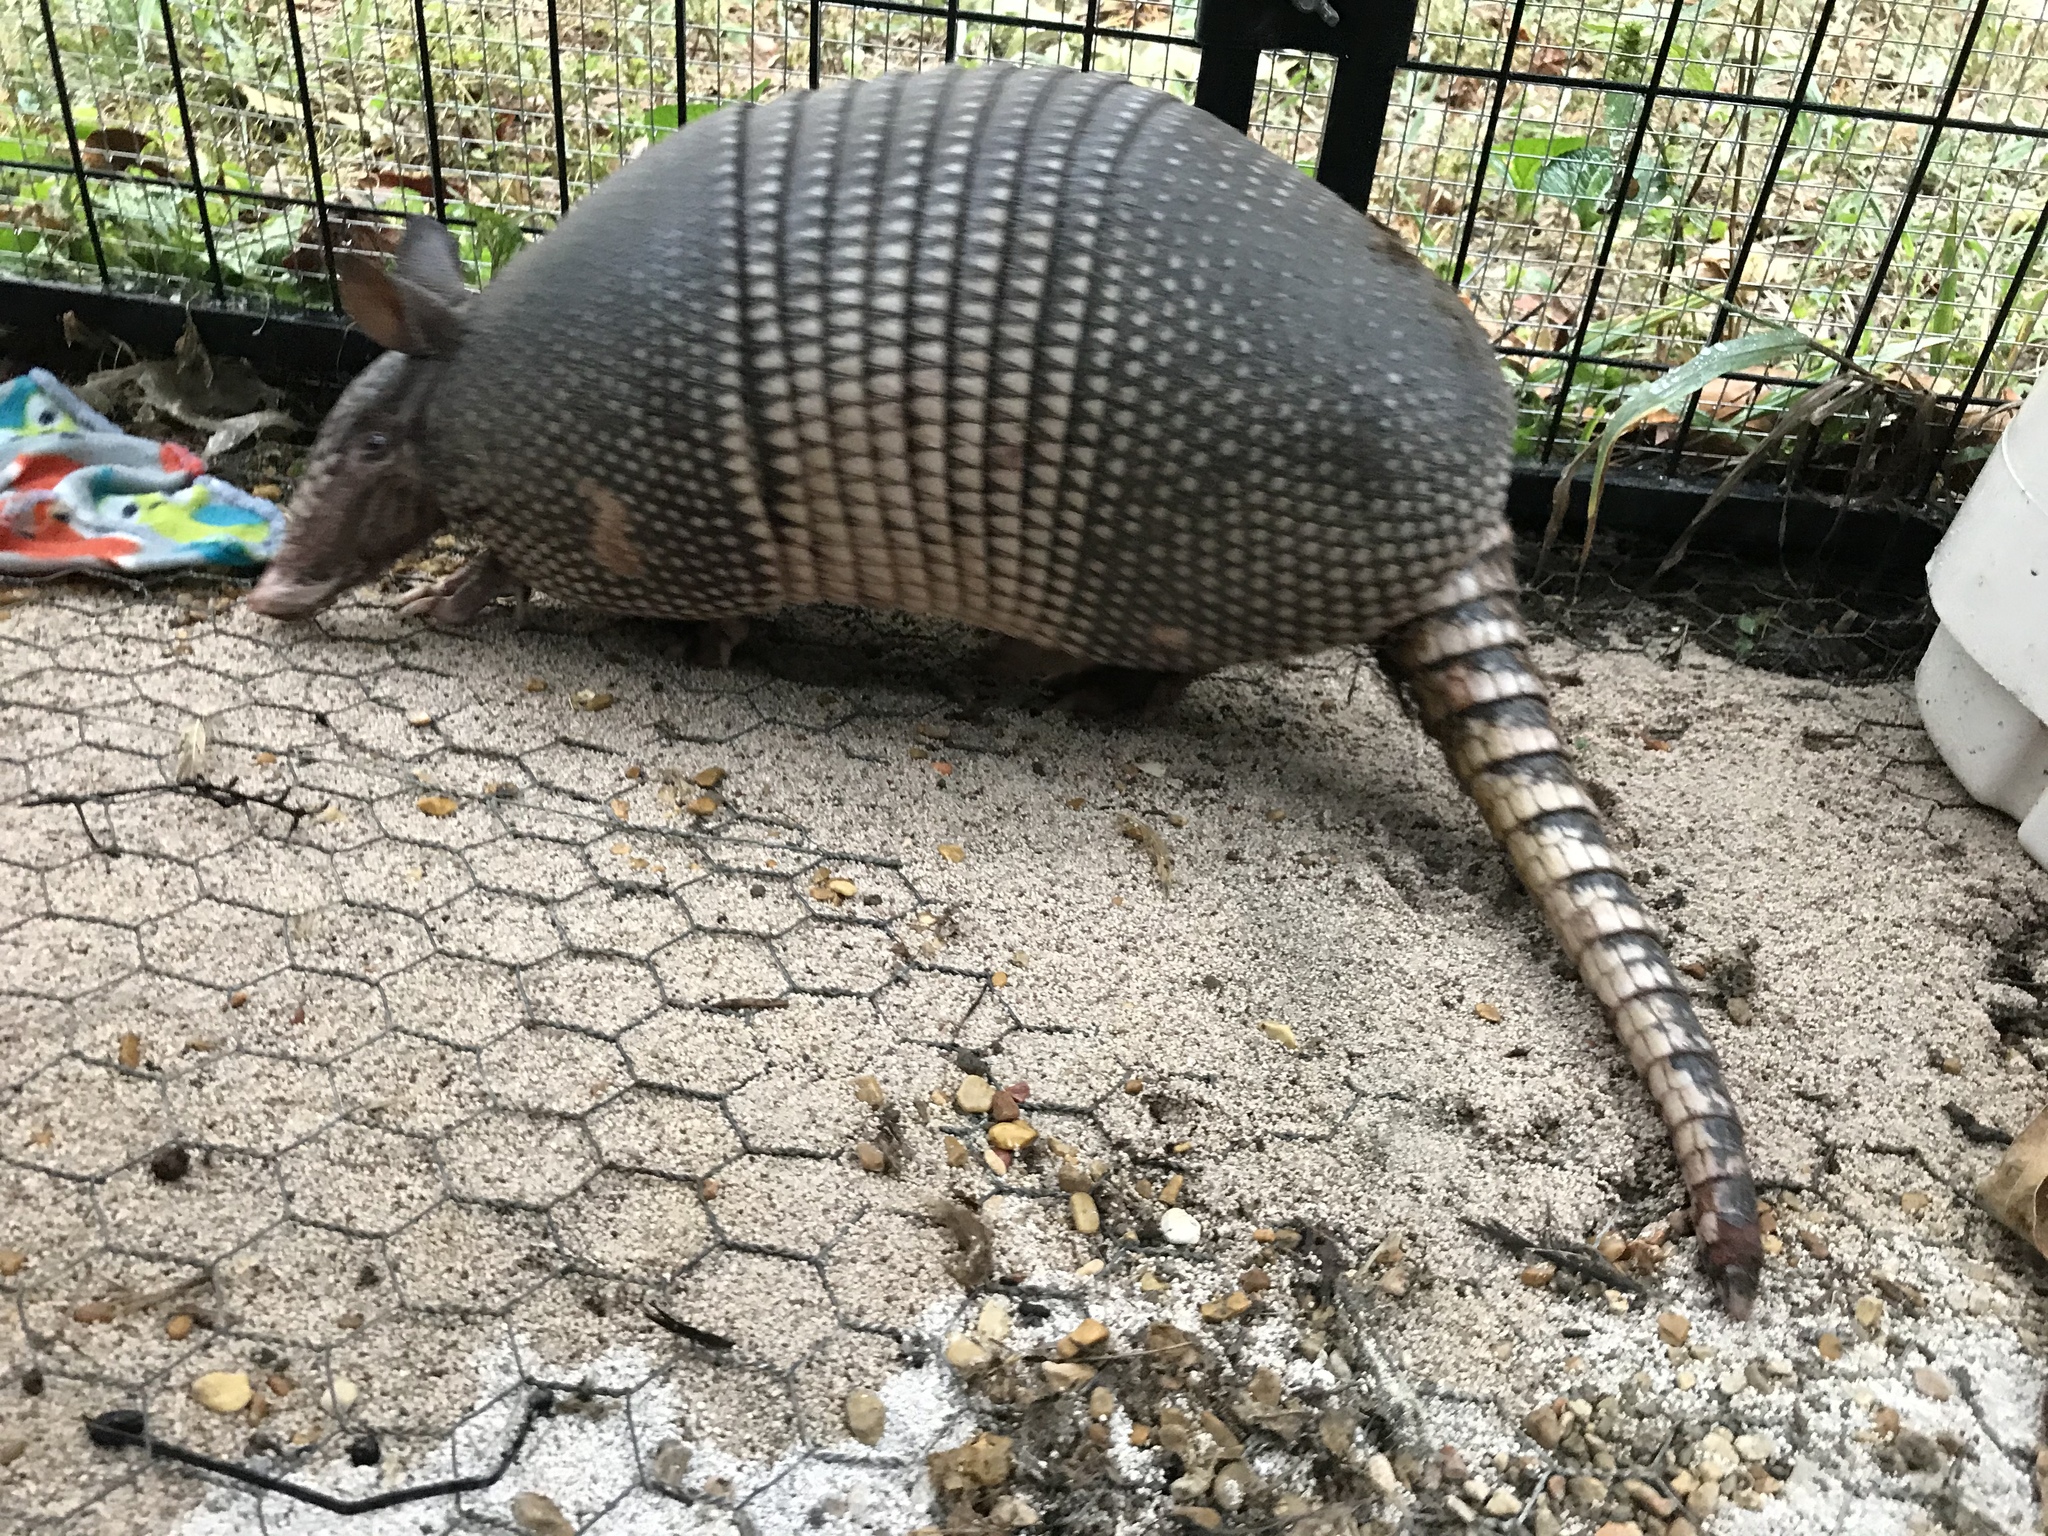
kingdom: Animalia
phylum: Chordata
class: Mammalia
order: Cingulata
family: Dasypodidae
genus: Dasypus
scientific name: Dasypus novemcinctus
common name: Nine-banded armadillo
